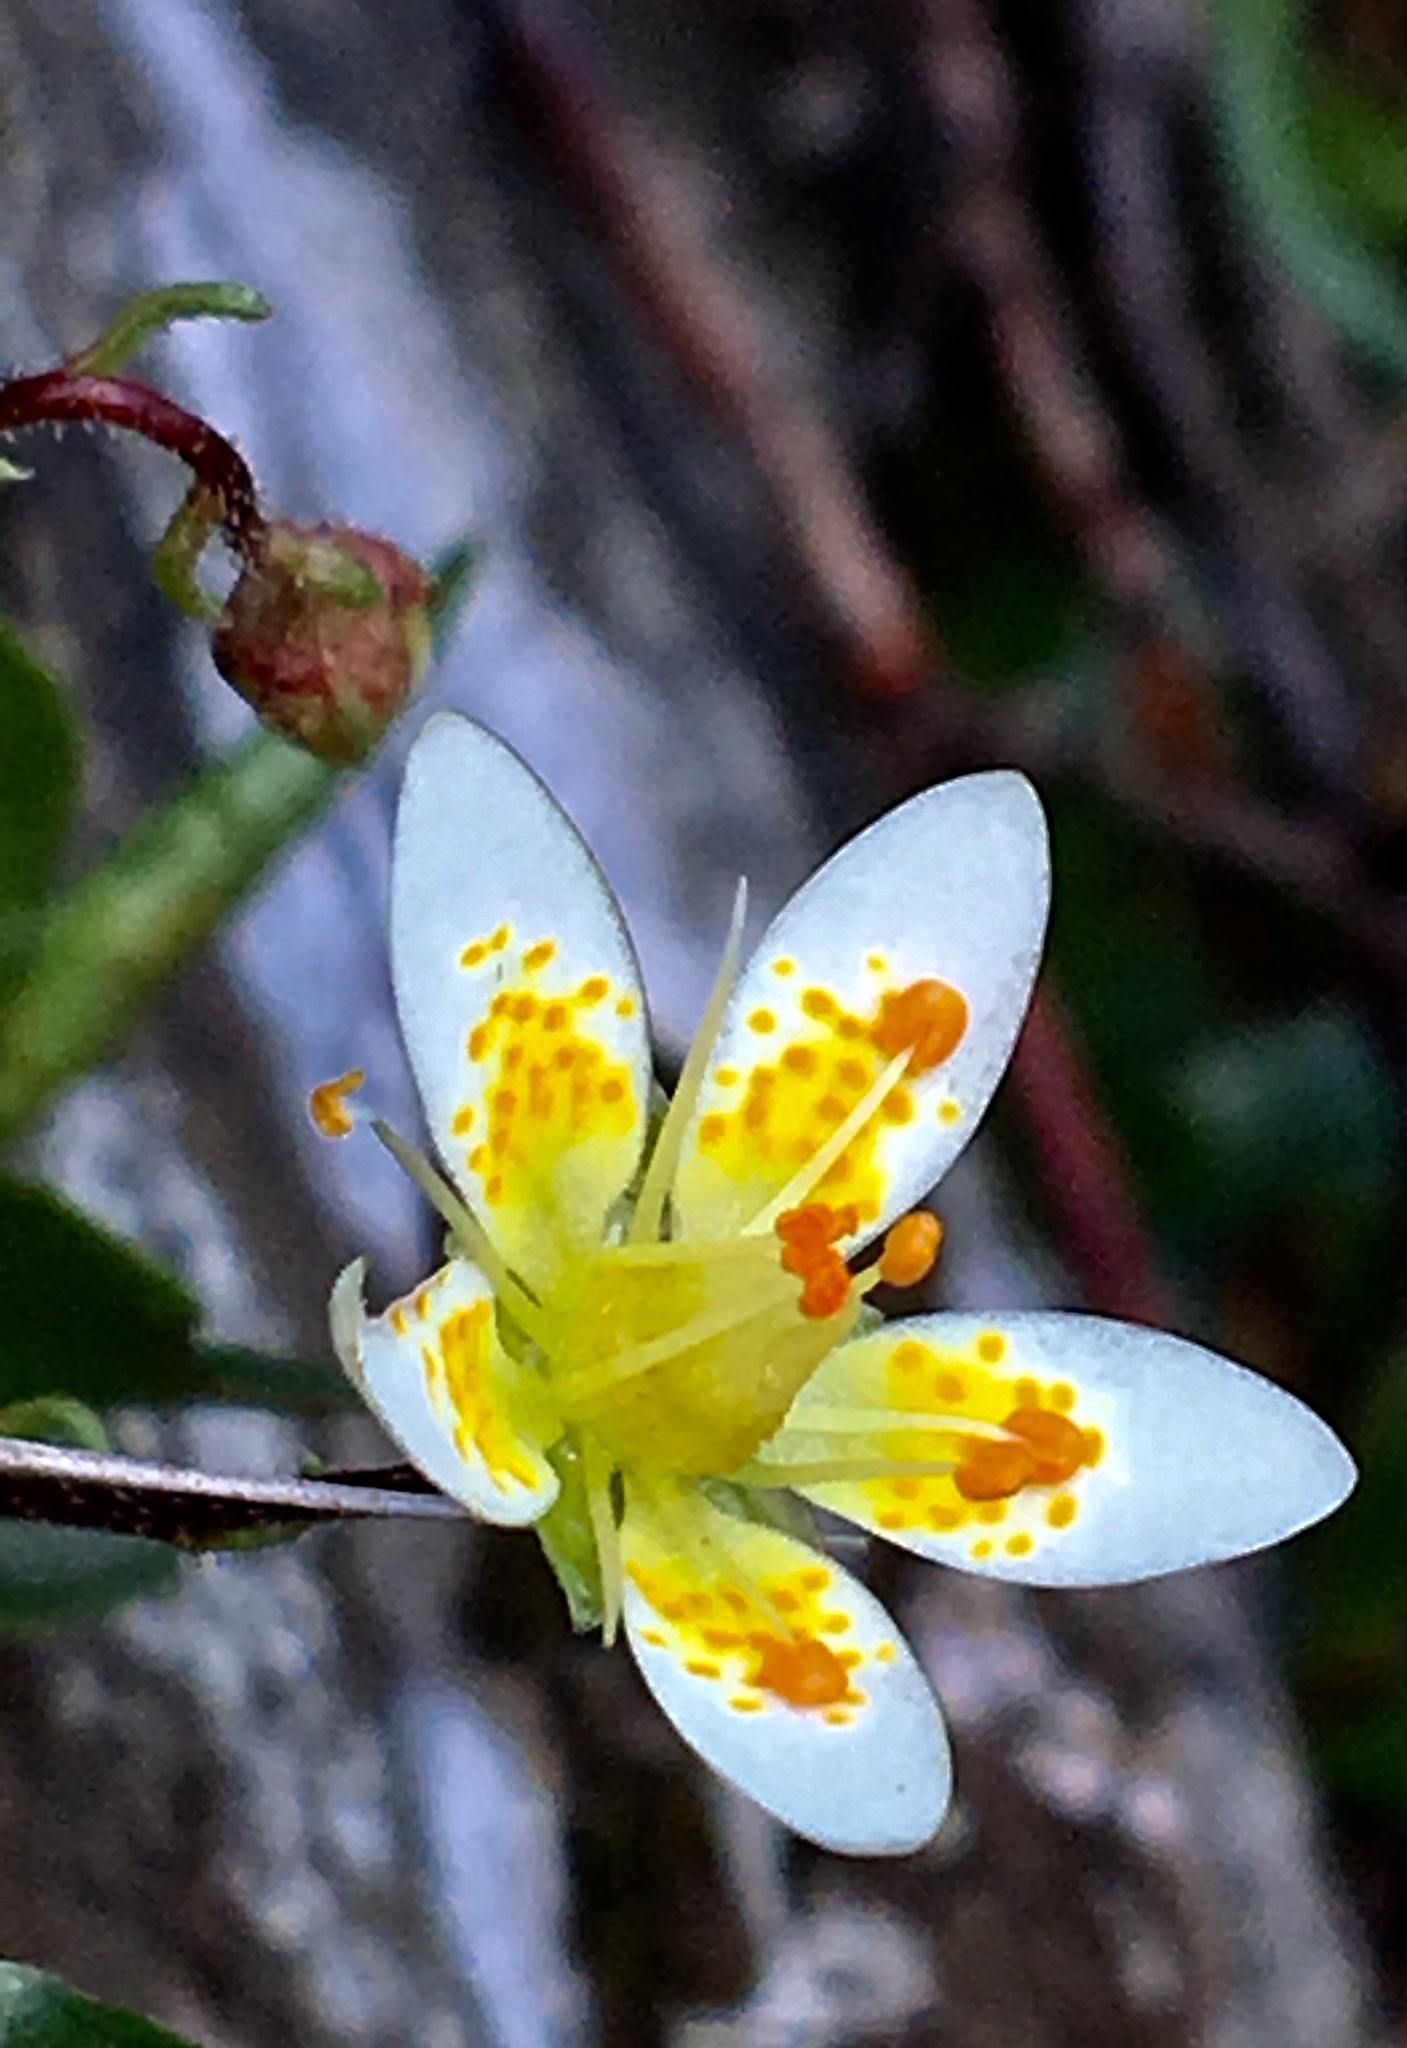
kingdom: Plantae
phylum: Tracheophyta
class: Magnoliopsida
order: Saxifragales
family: Saxifragaceae
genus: Saxifraga
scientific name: Saxifraga bryoides
